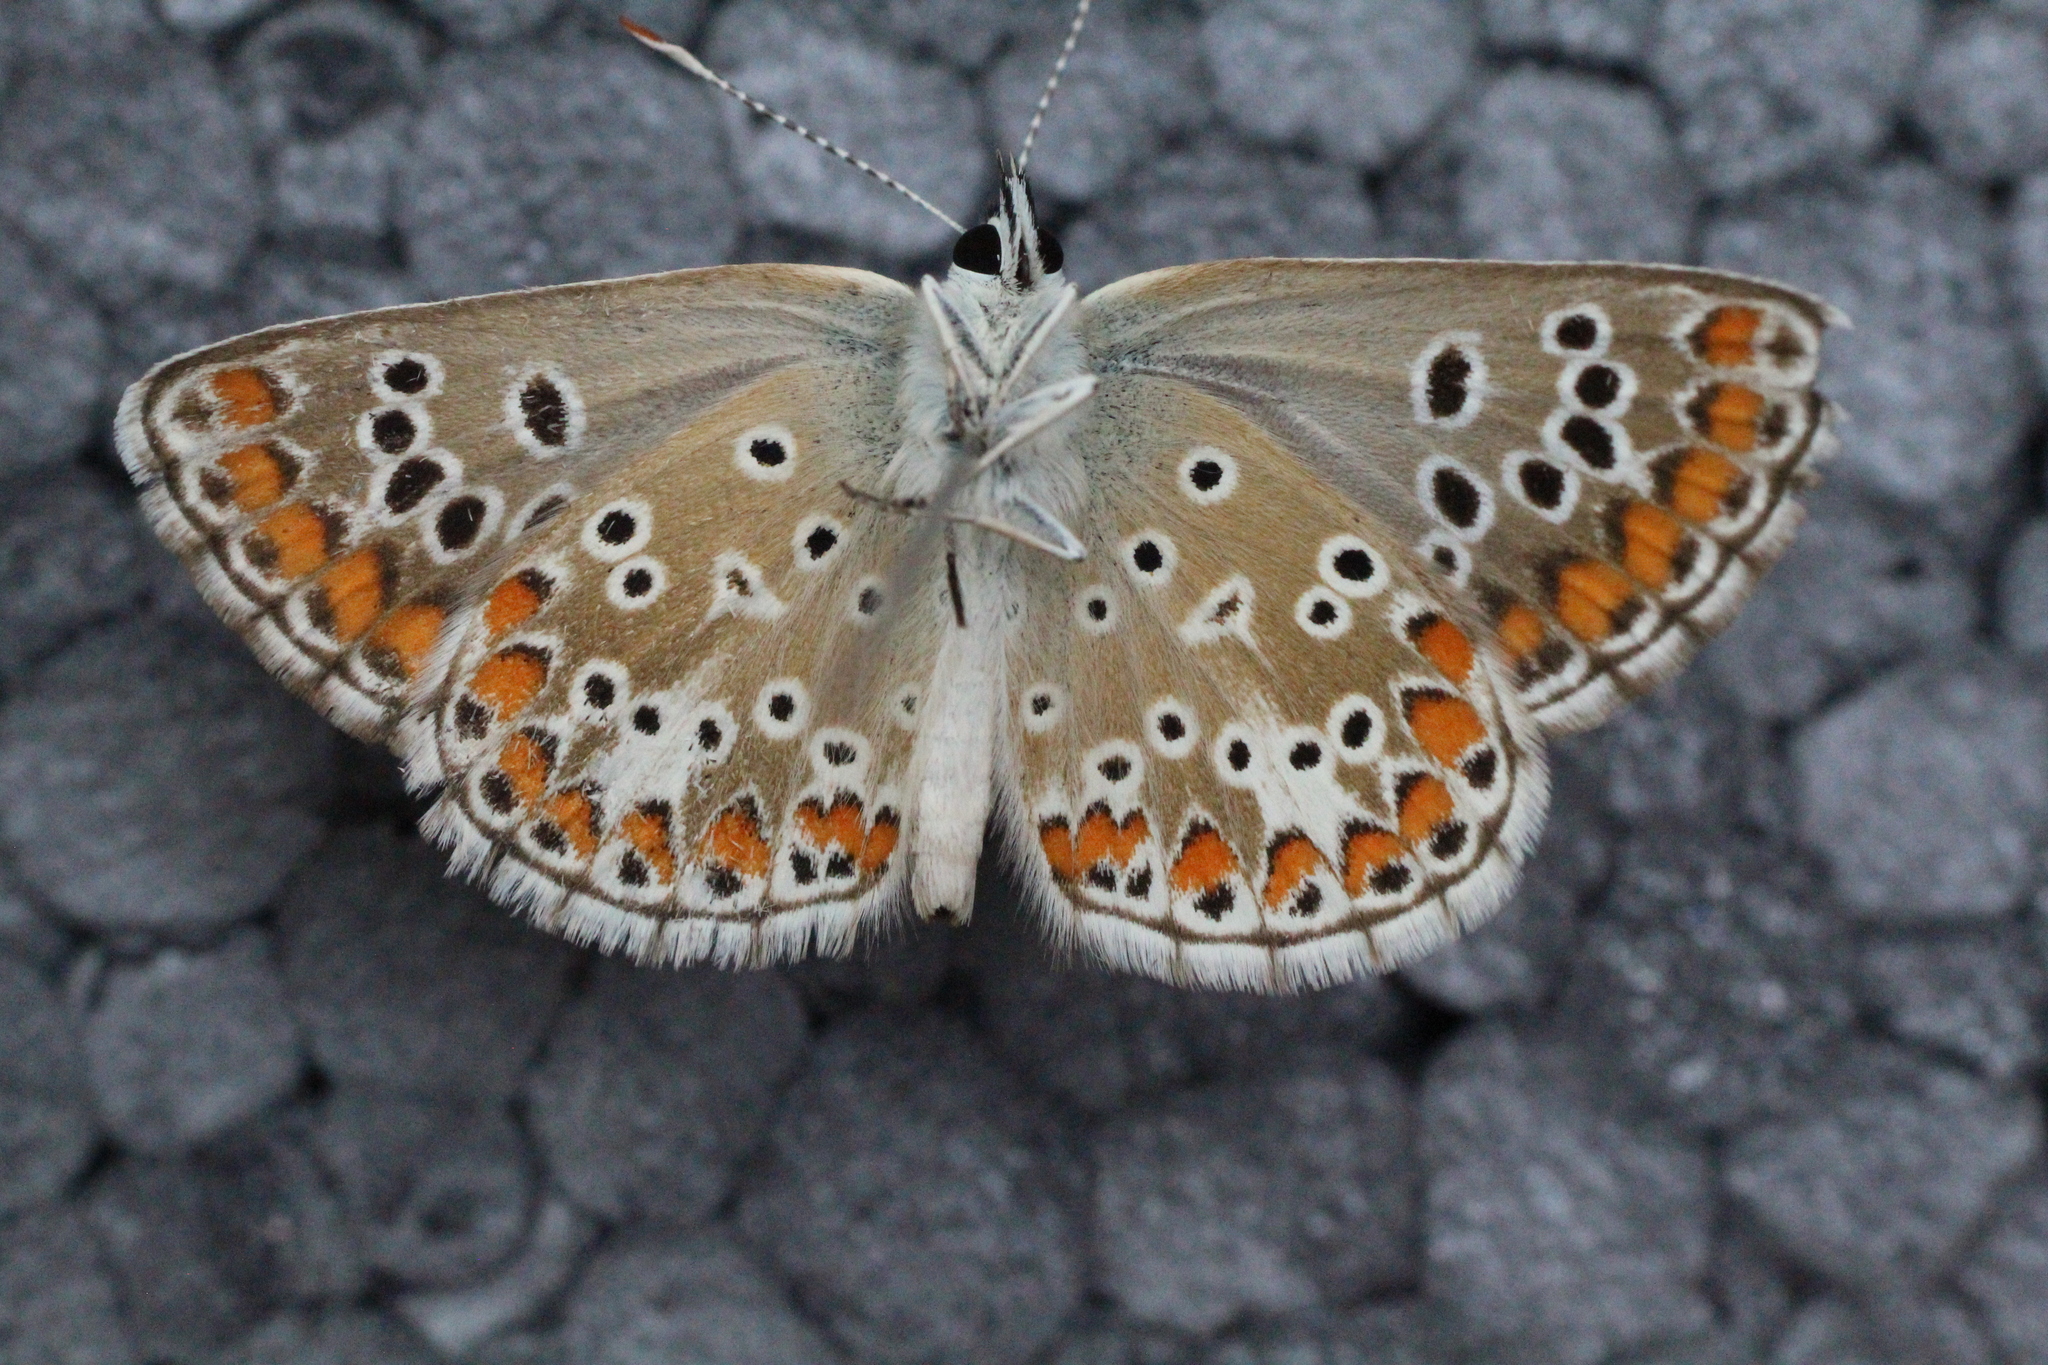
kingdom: Animalia
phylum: Arthropoda
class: Insecta
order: Lepidoptera
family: Lycaenidae
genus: Aricia
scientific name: Aricia agestis
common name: Brown argus
